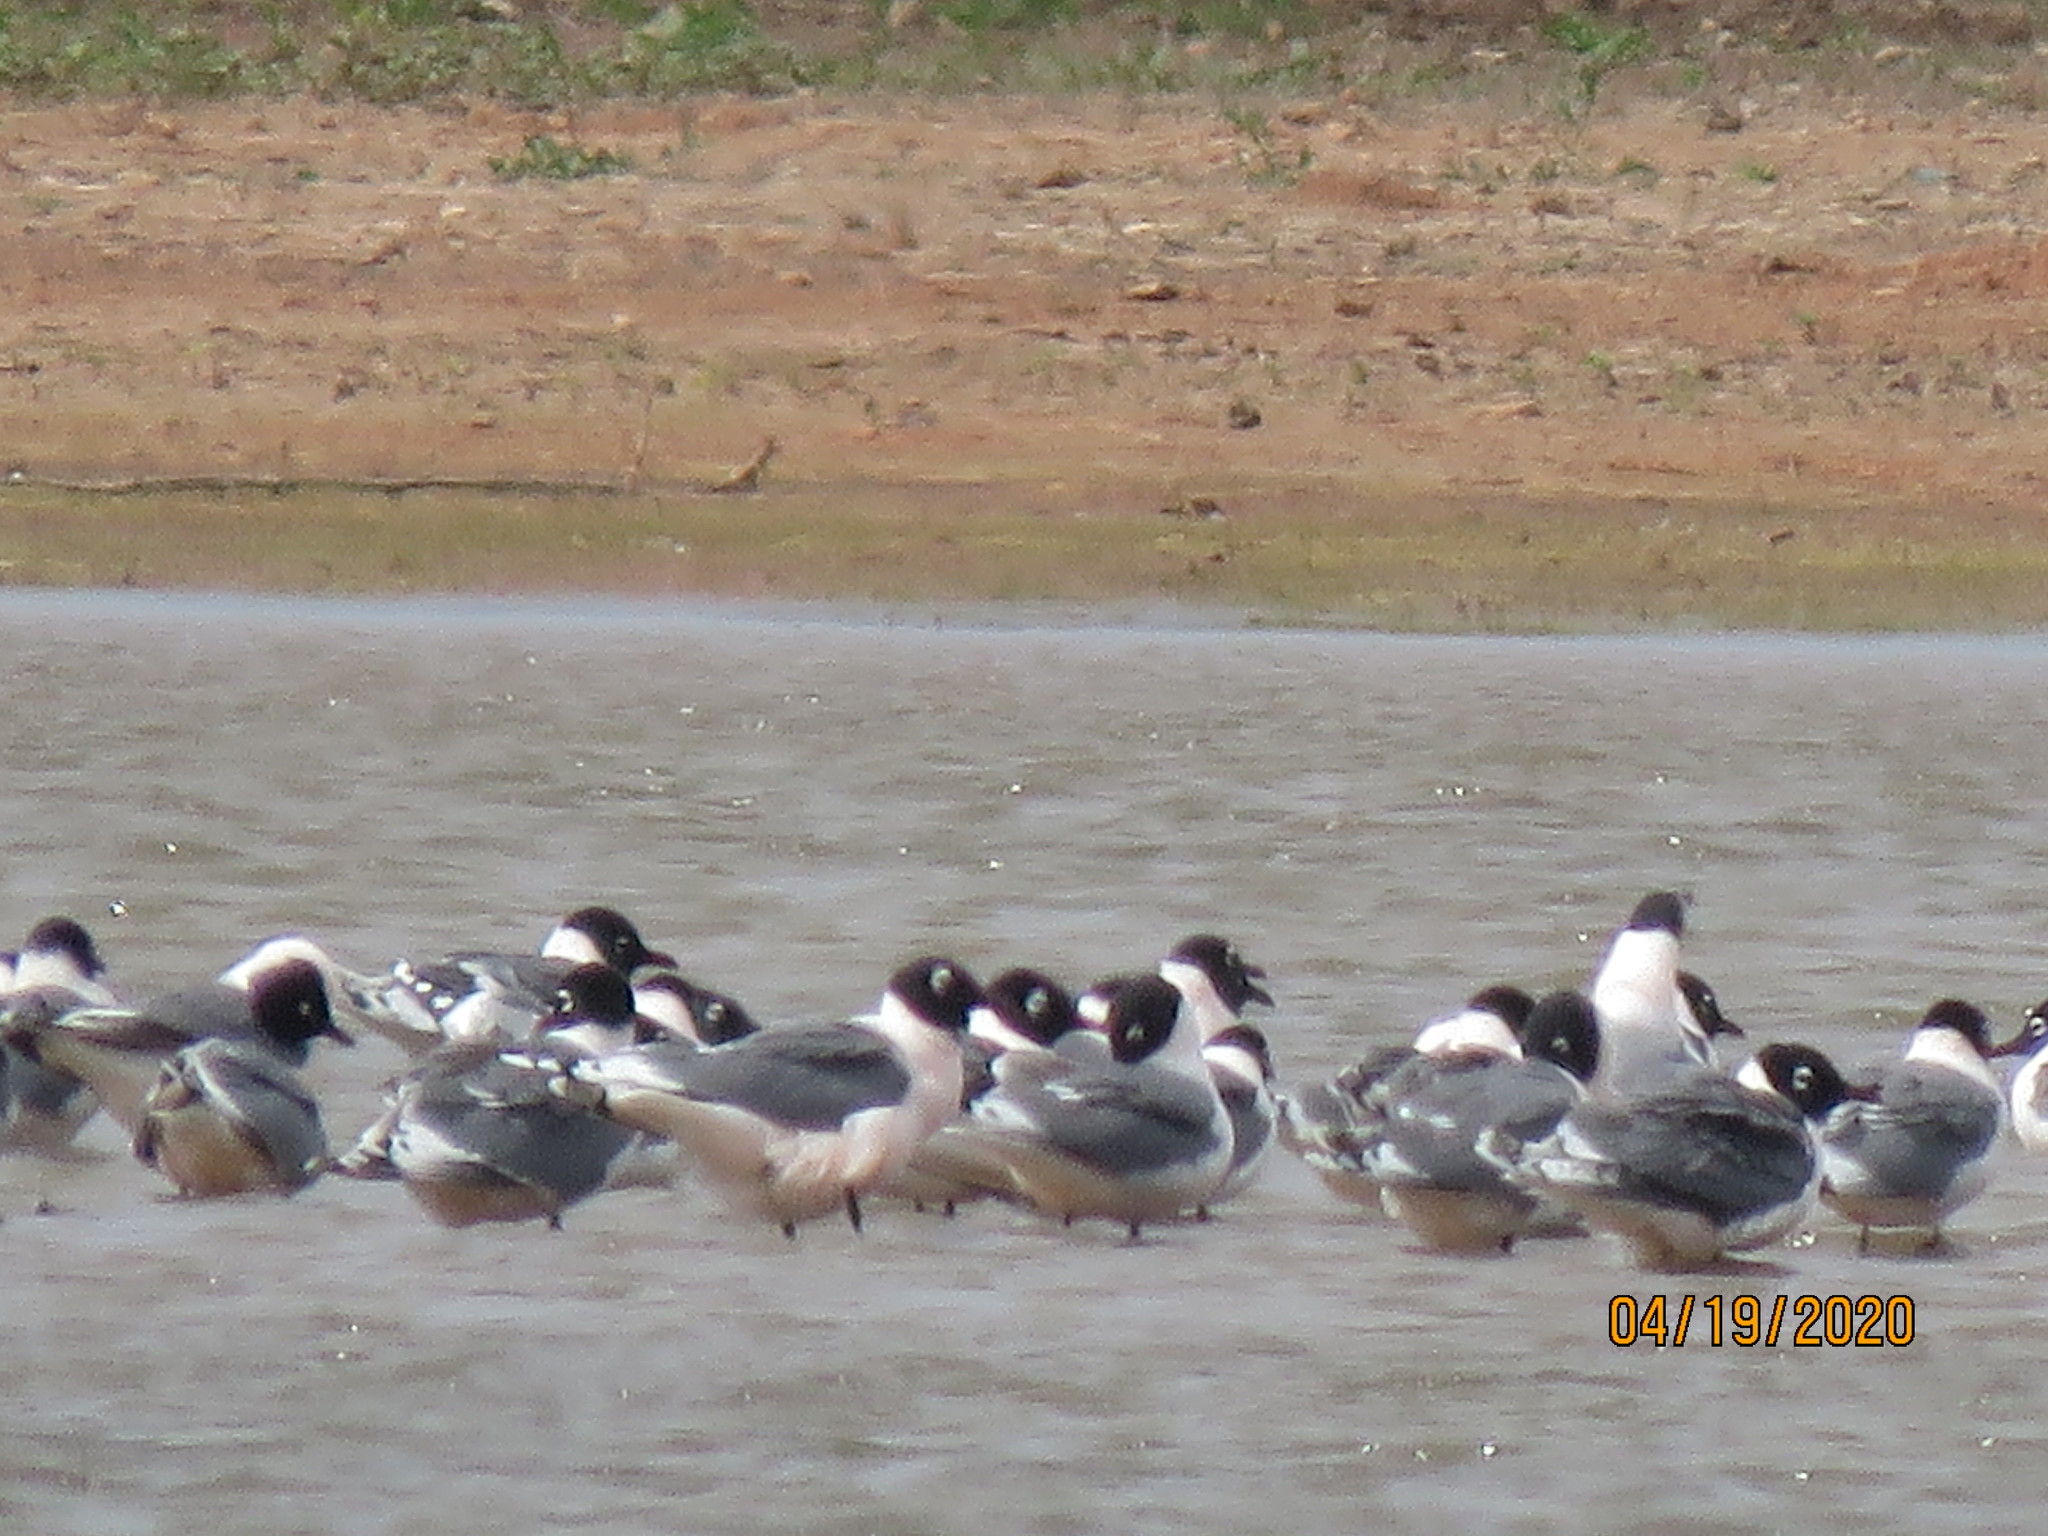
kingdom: Animalia
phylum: Chordata
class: Aves
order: Charadriiformes
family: Laridae
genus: Leucophaeus
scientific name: Leucophaeus pipixcan
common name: Franklin's gull
